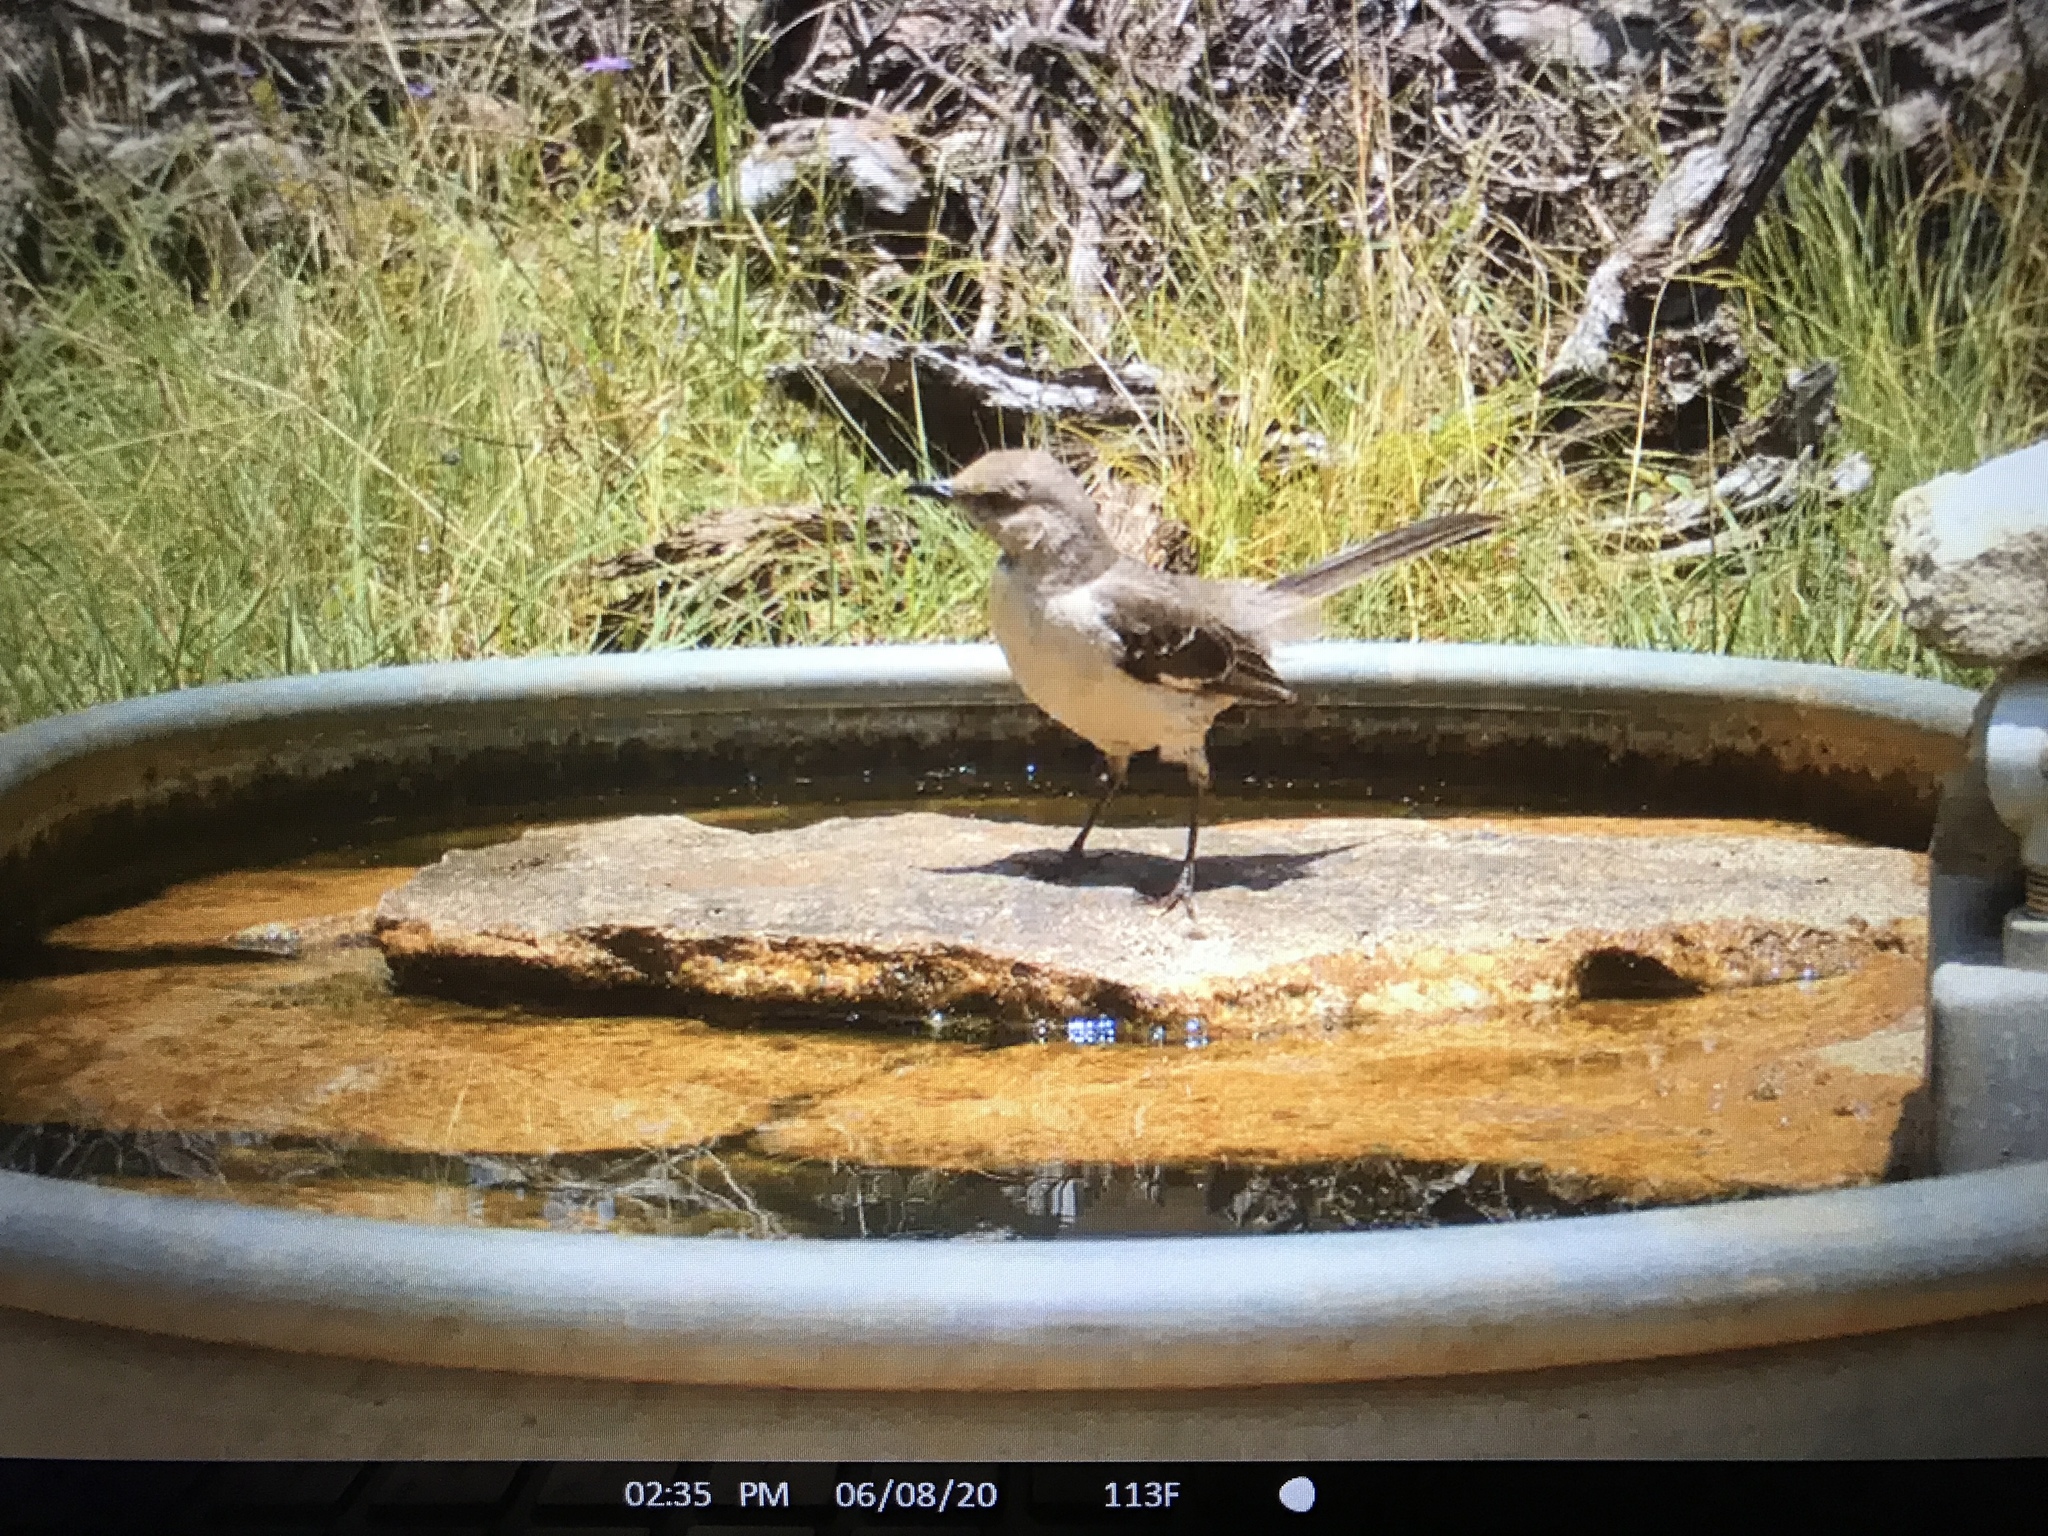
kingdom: Animalia
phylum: Chordata
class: Aves
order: Passeriformes
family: Mimidae
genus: Mimus
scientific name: Mimus polyglottos
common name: Northern mockingbird
